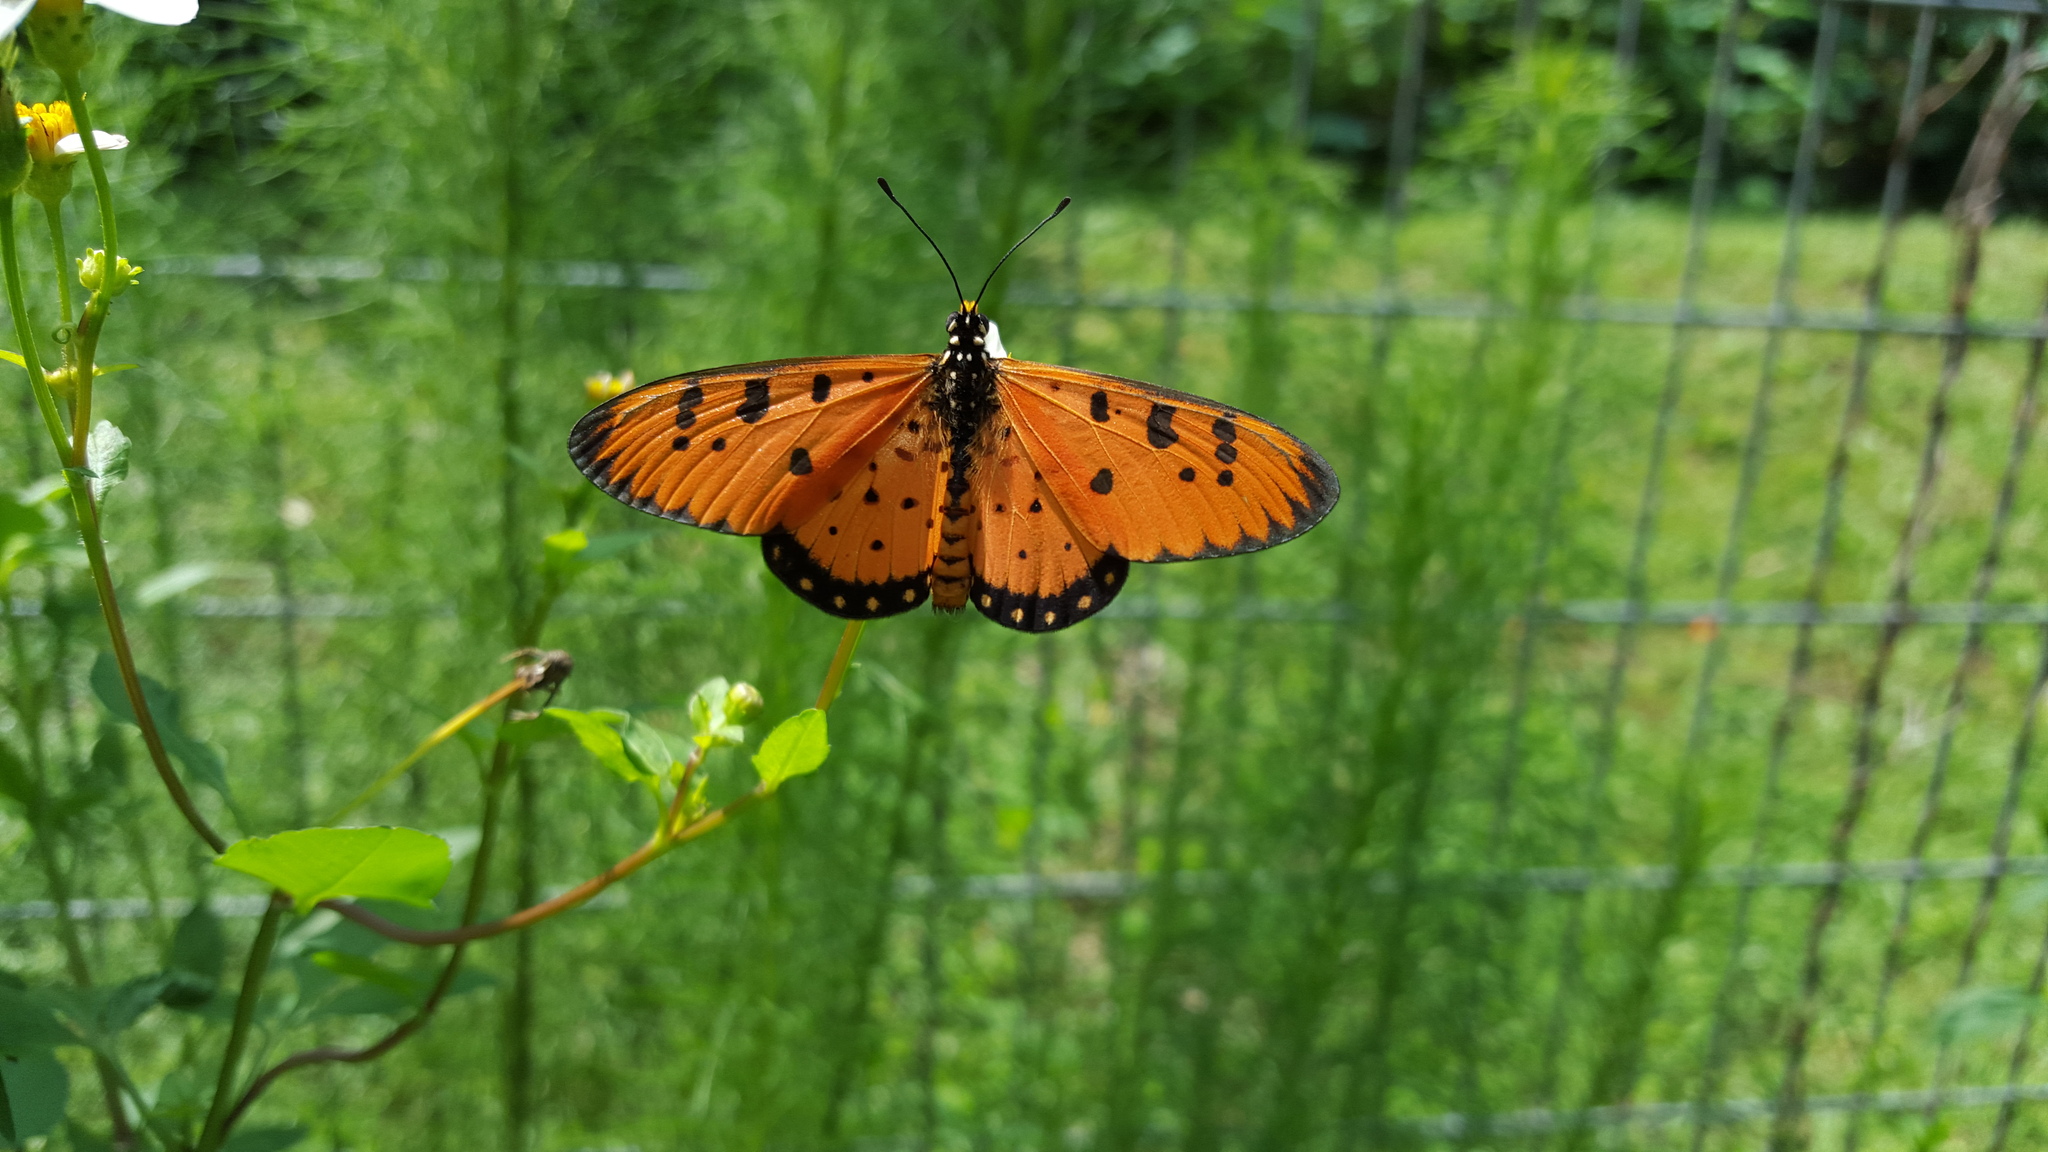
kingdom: Animalia
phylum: Arthropoda
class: Insecta
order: Lepidoptera
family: Nymphalidae
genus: Acraea
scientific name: Acraea terpsicore
